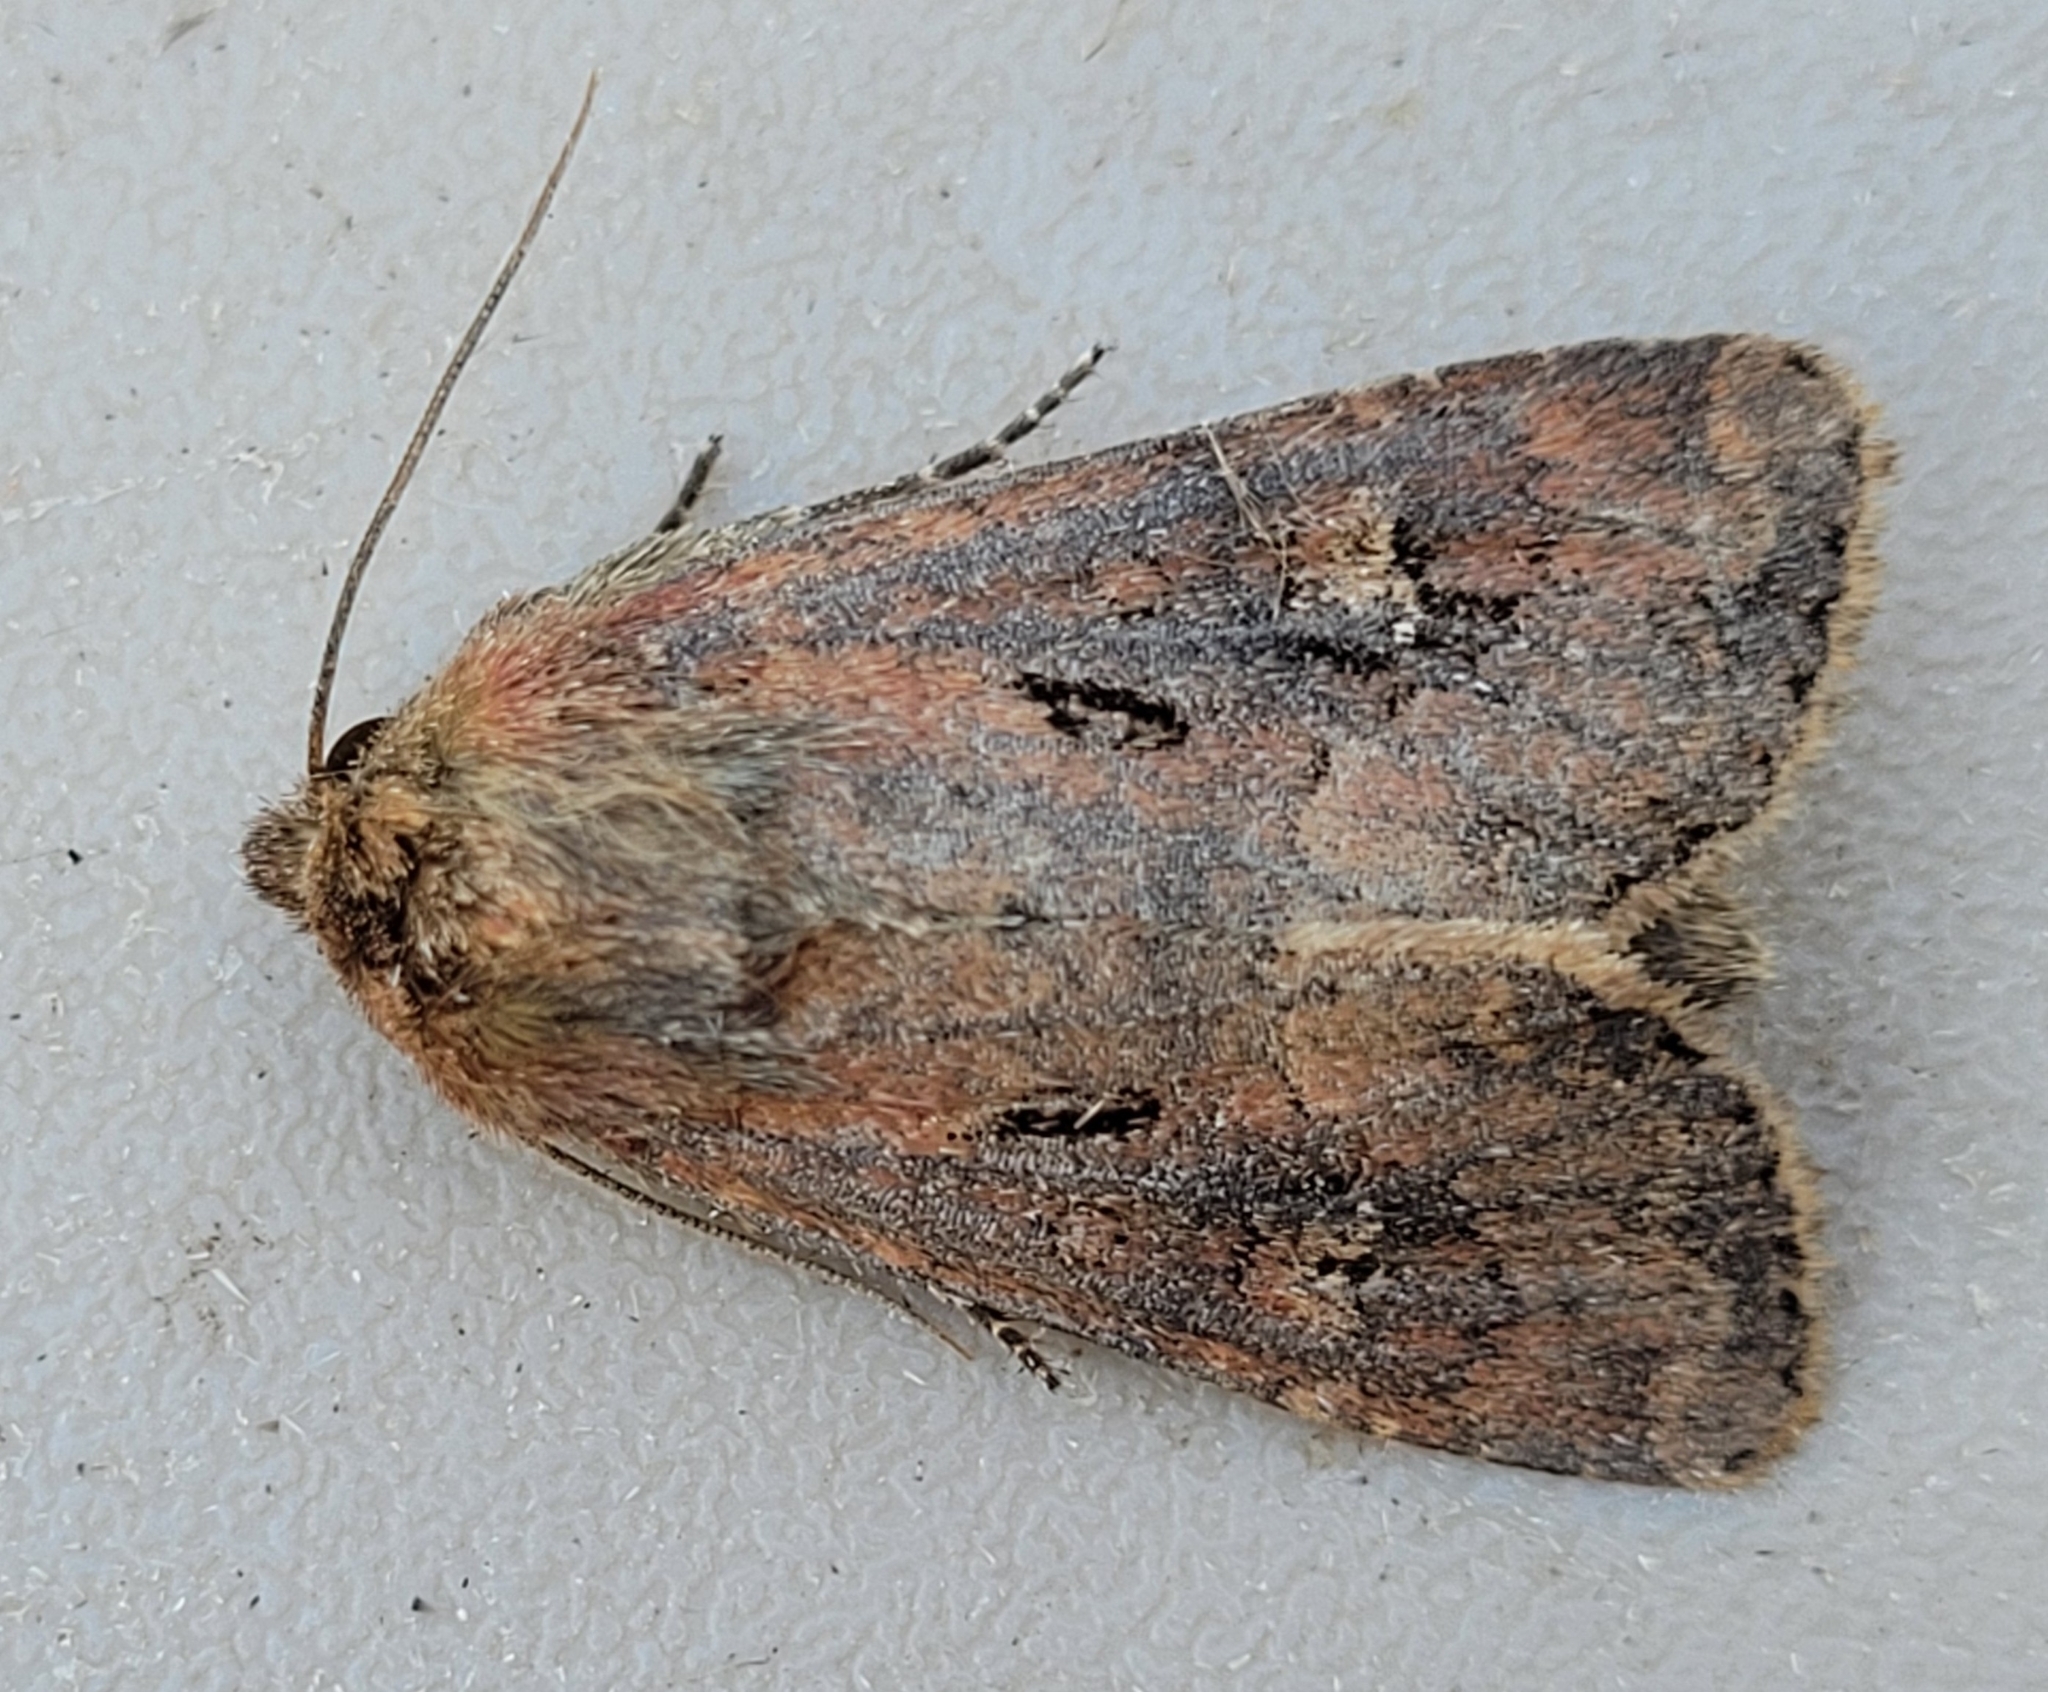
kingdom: Animalia
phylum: Arthropoda
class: Insecta
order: Lepidoptera
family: Noctuidae
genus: Resapamea
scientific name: Resapamea passer
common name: Dock rustic moth
